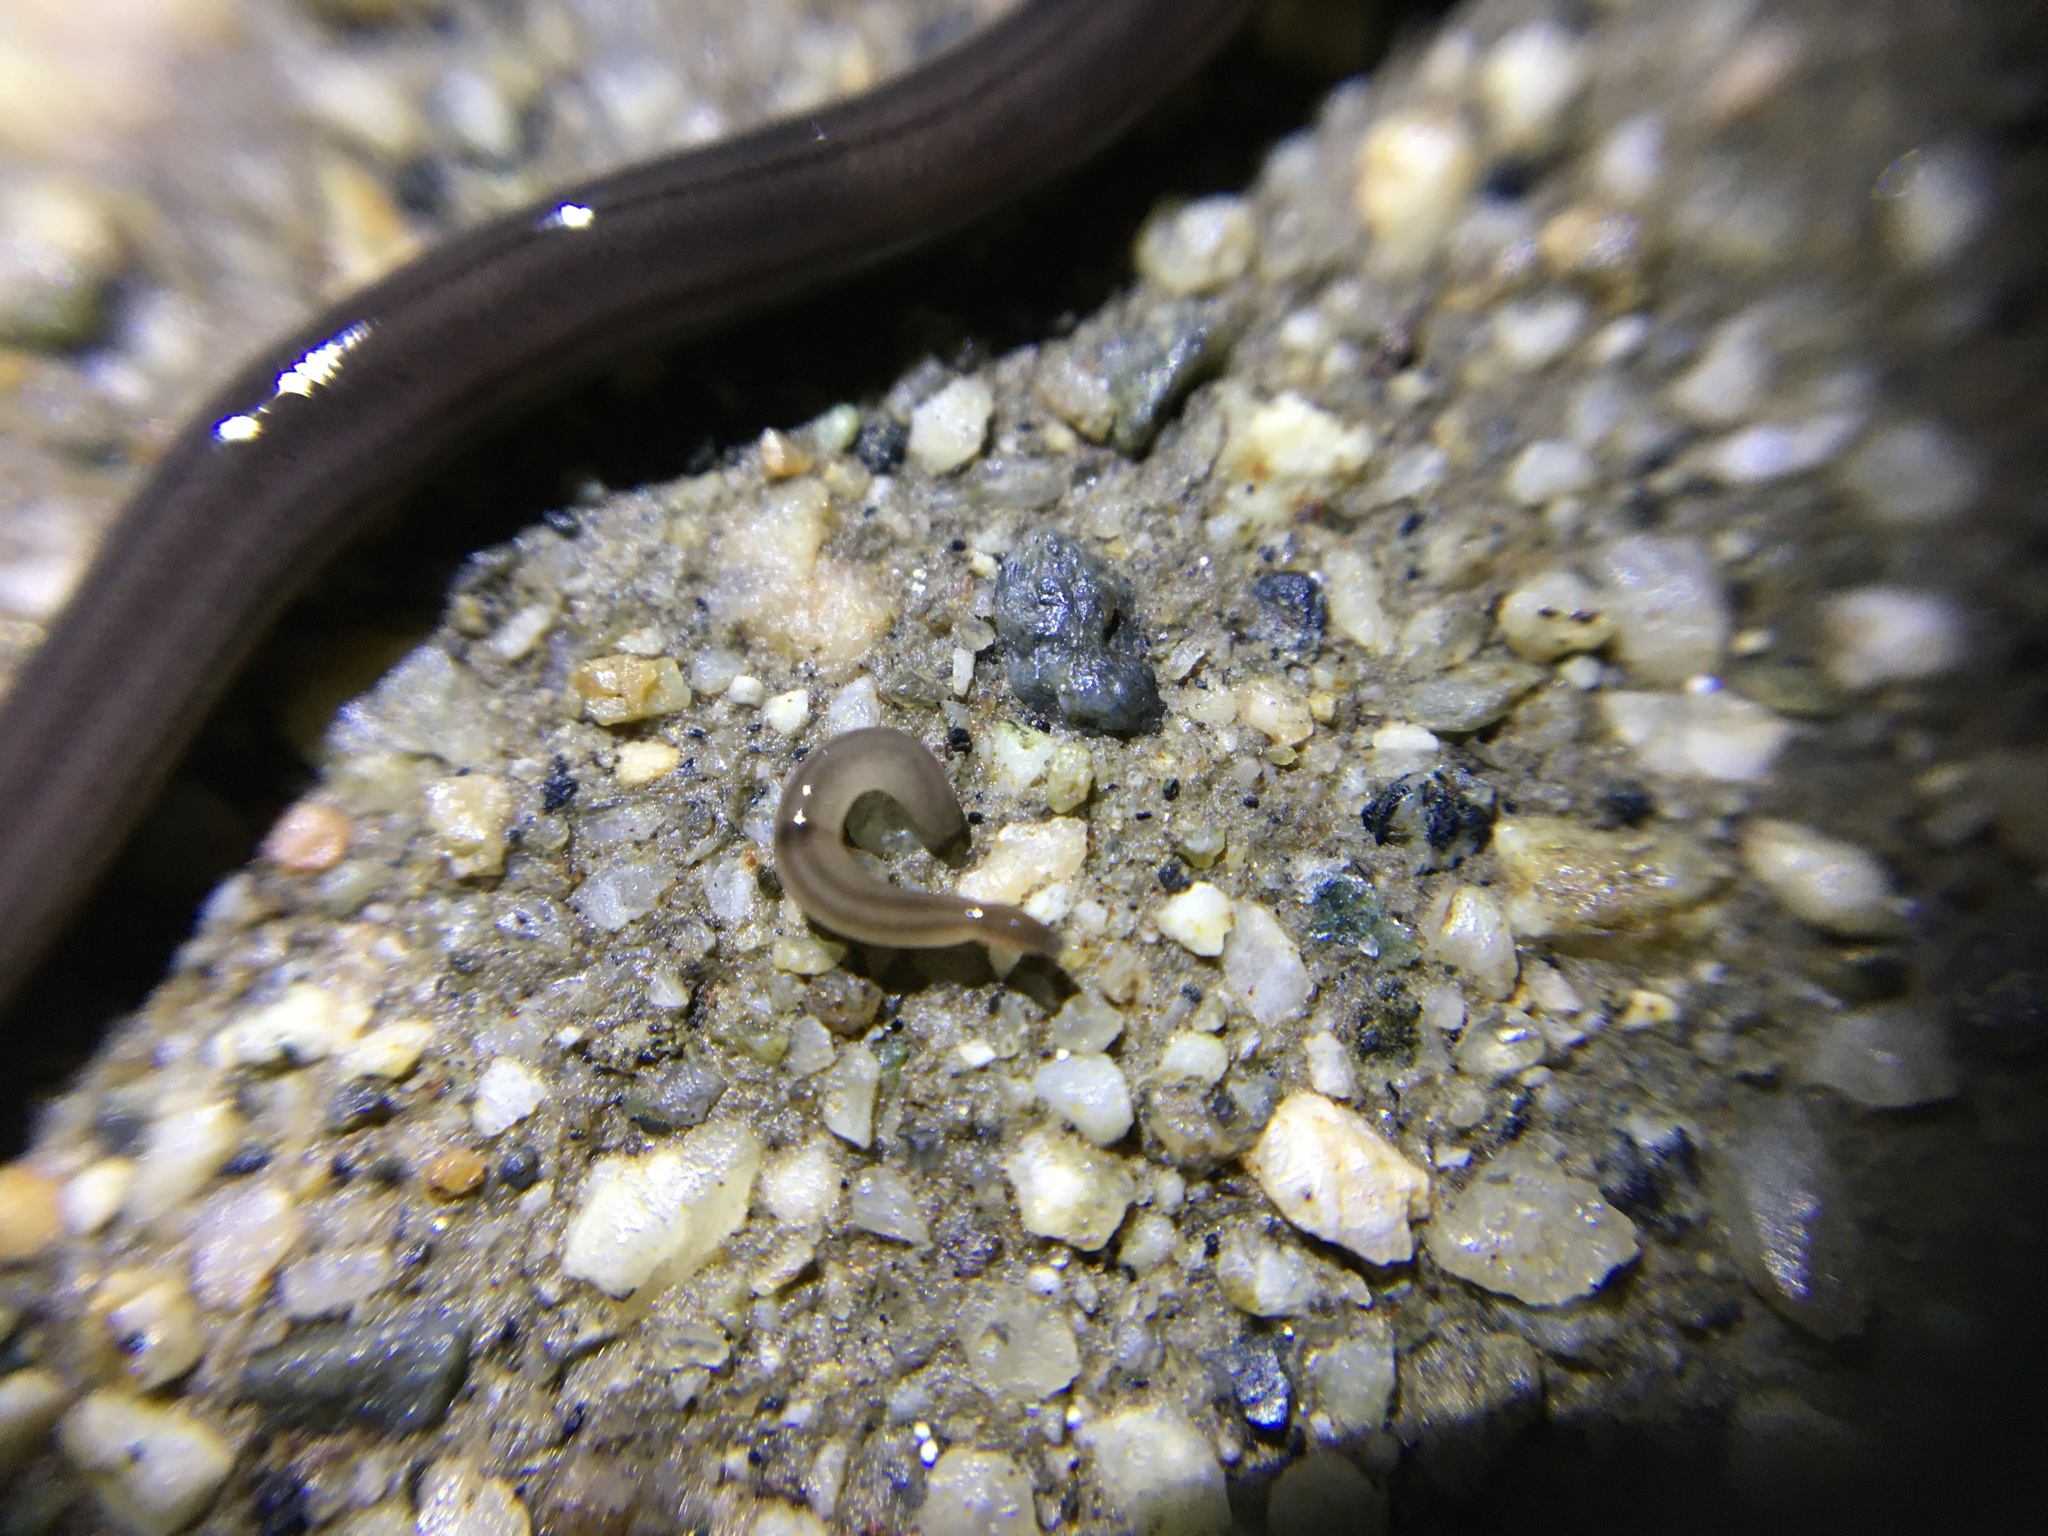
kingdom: Animalia
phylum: Platyhelminthes
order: Tricladida
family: Geoplanidae
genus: Endeavouria
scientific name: Endeavouria septemlineata
